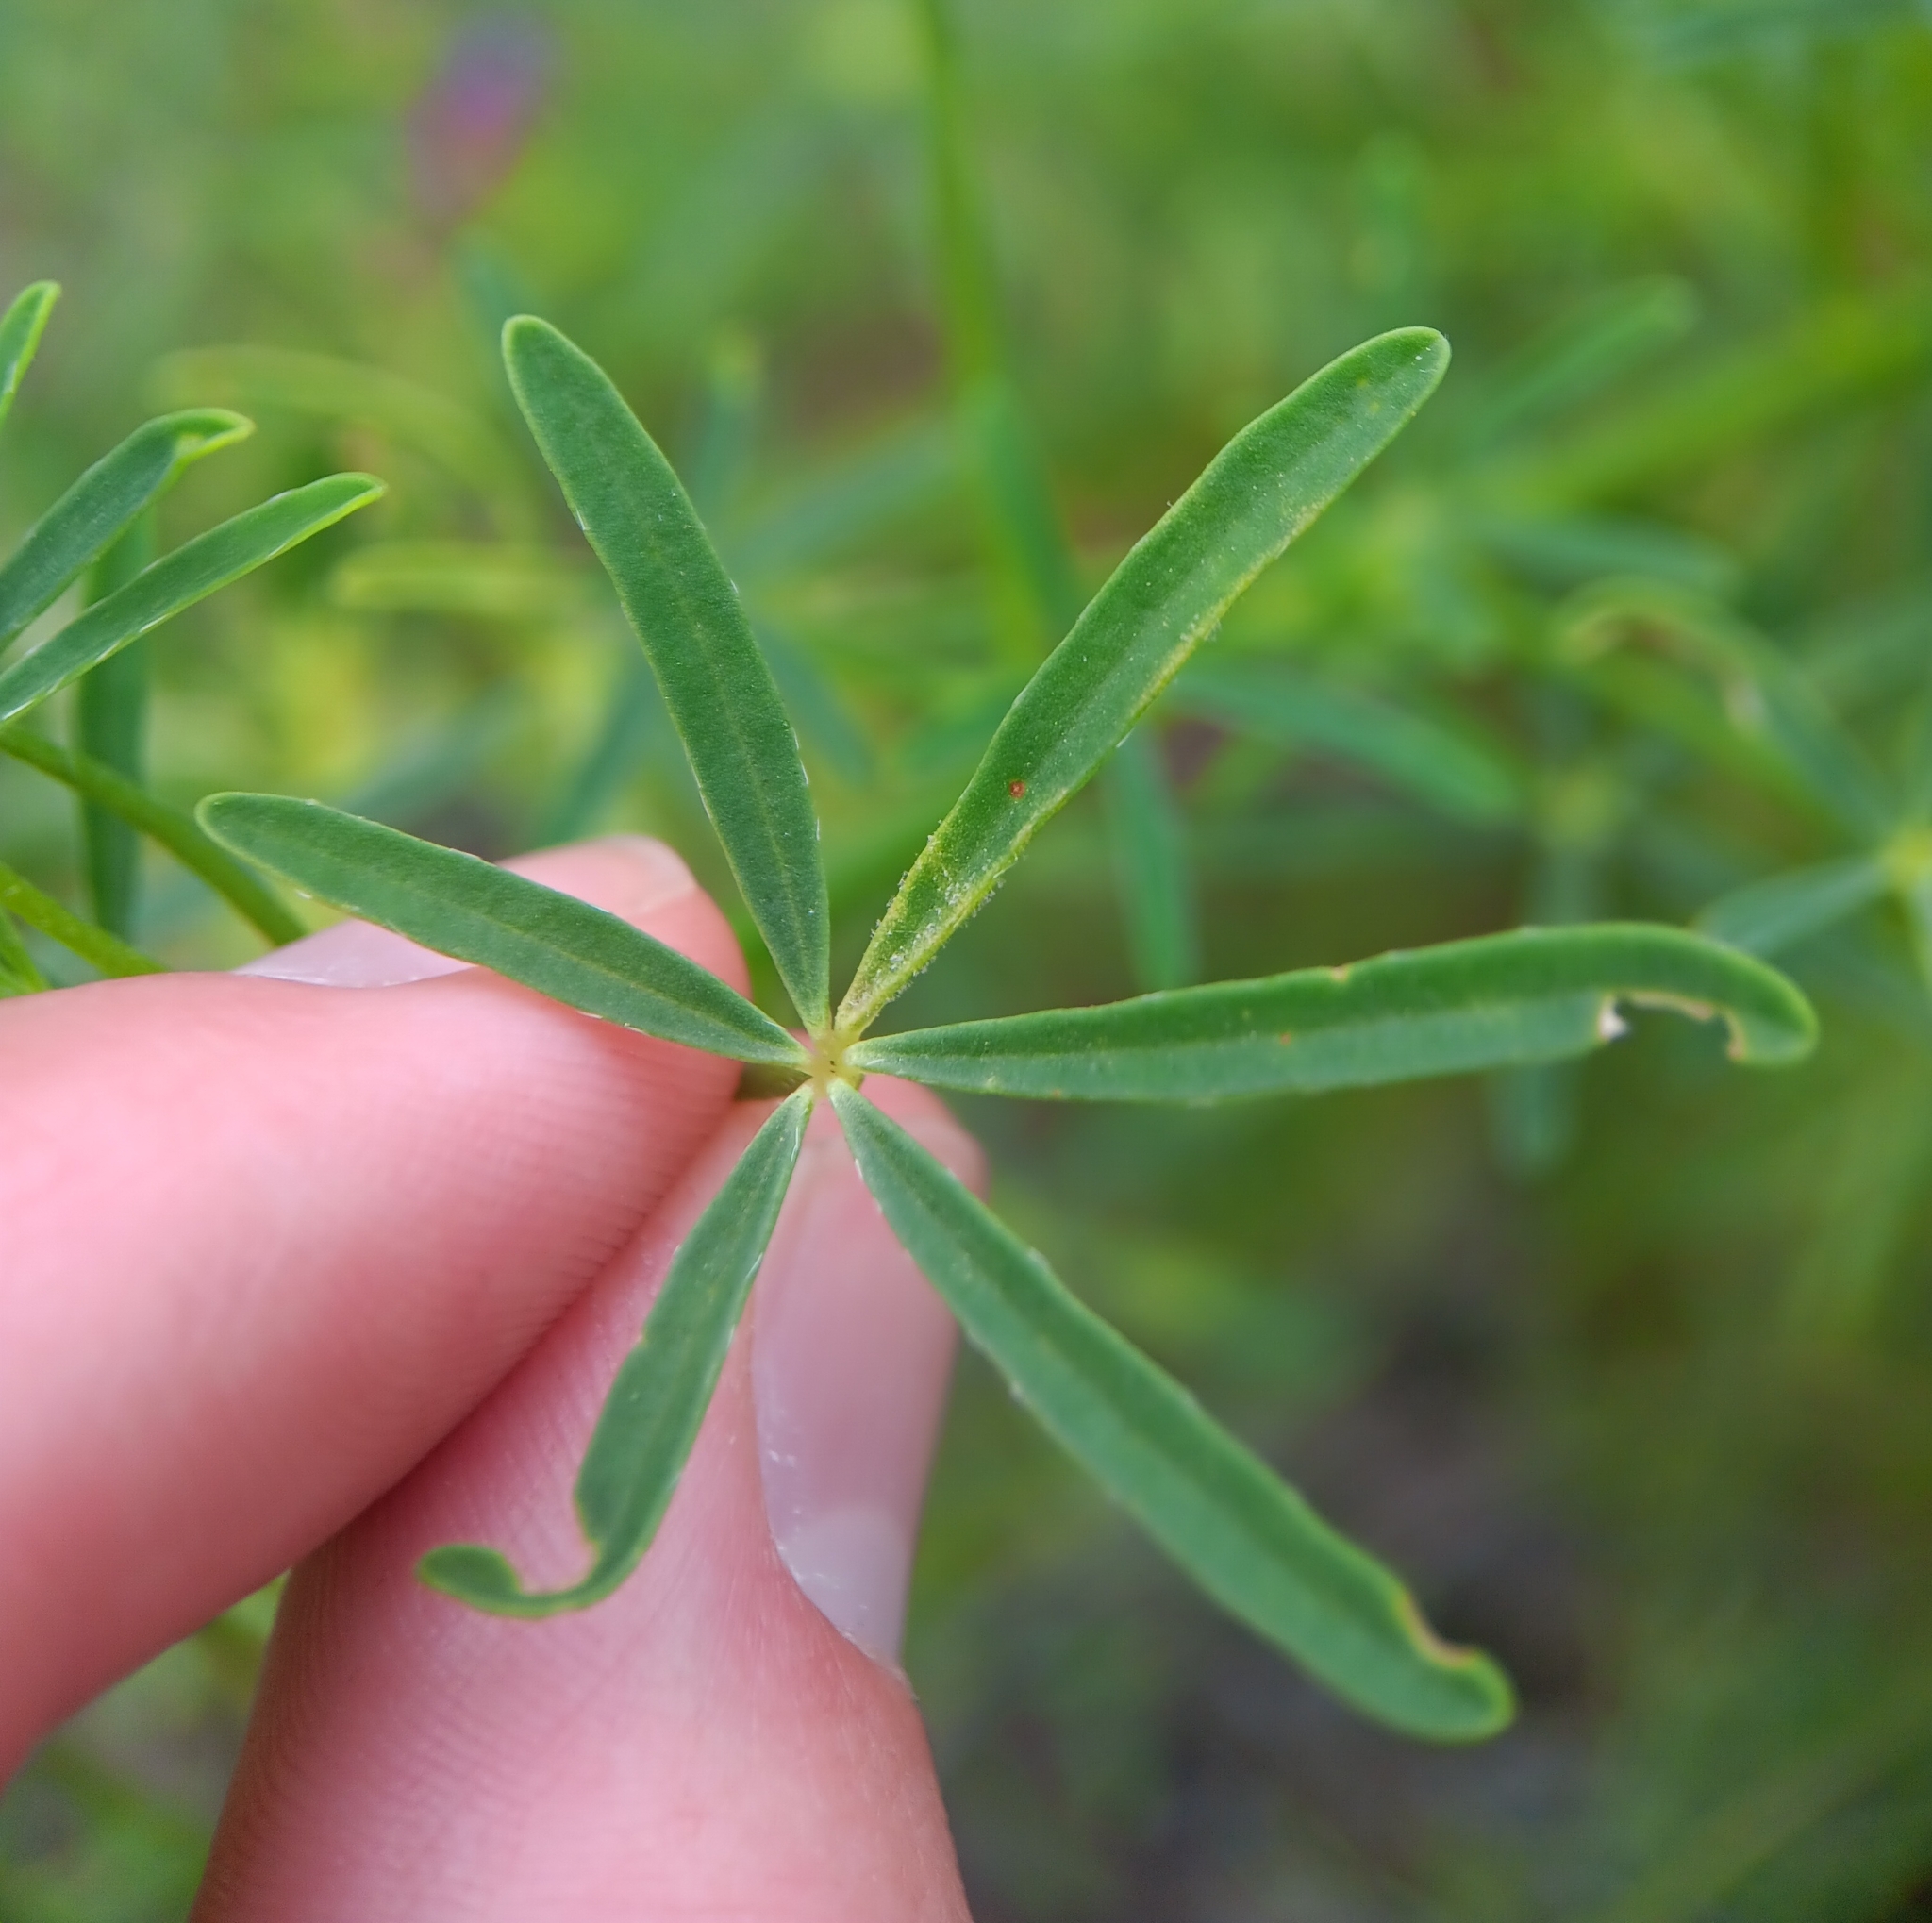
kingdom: Plantae
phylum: Tracheophyta
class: Magnoliopsida
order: Fabales
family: Fabaceae
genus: Lupinus
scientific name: Lupinus truncatus
